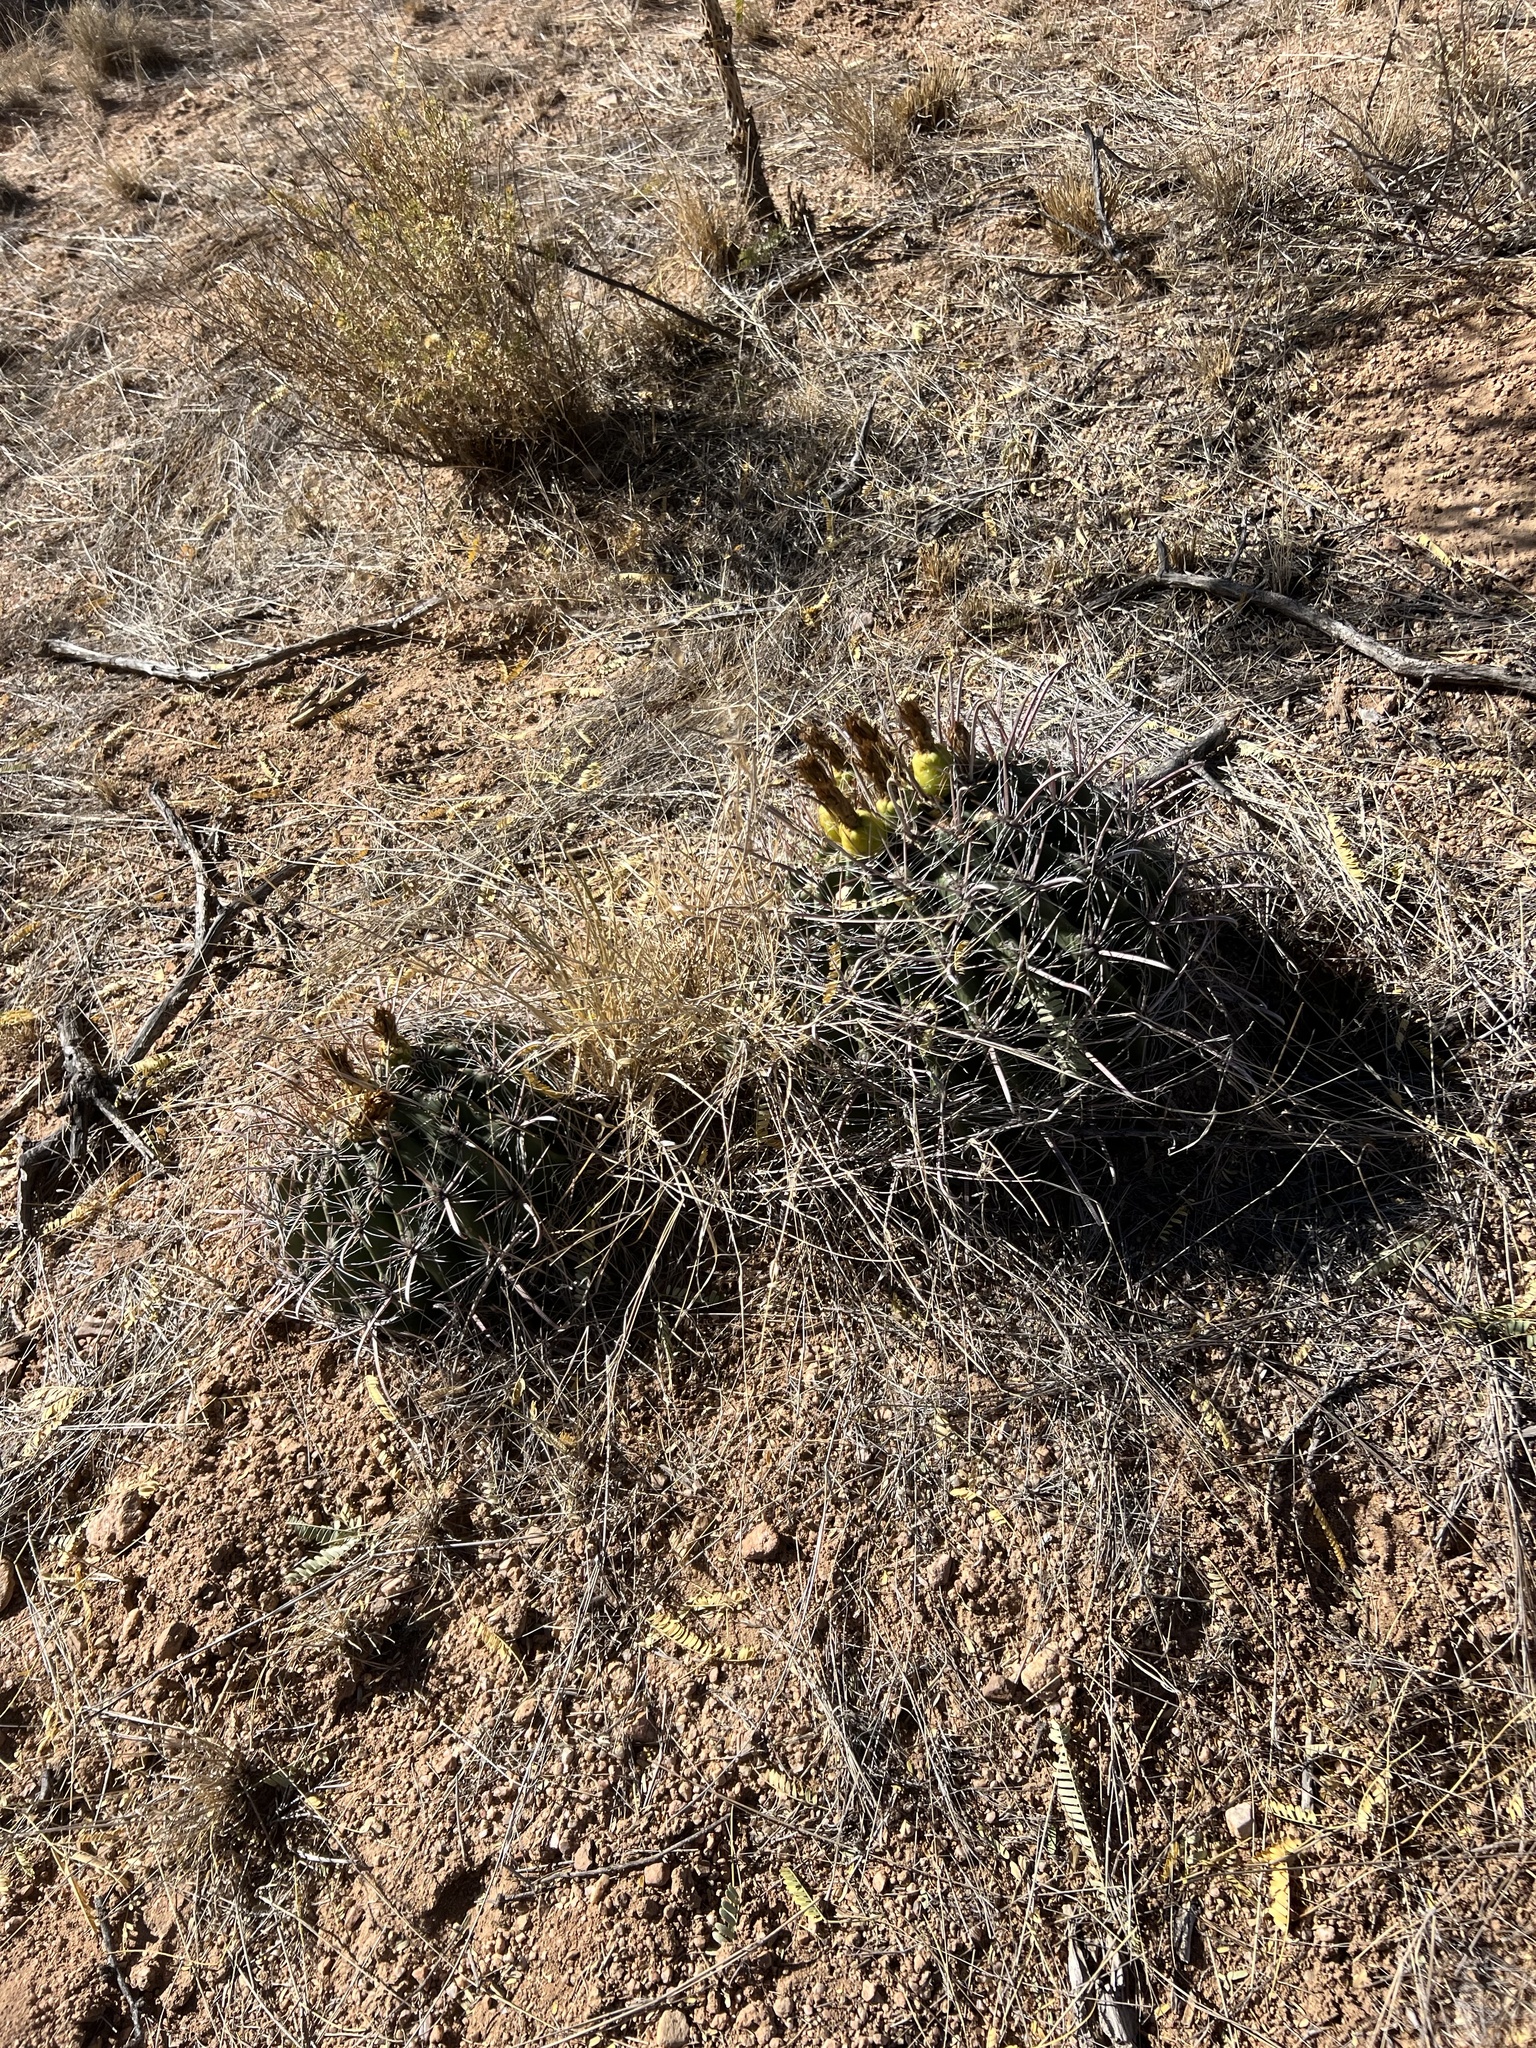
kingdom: Plantae
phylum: Tracheophyta
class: Magnoliopsida
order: Caryophyllales
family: Cactaceae
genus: Ferocactus
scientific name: Ferocactus wislizeni
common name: Candy barrel cactus
